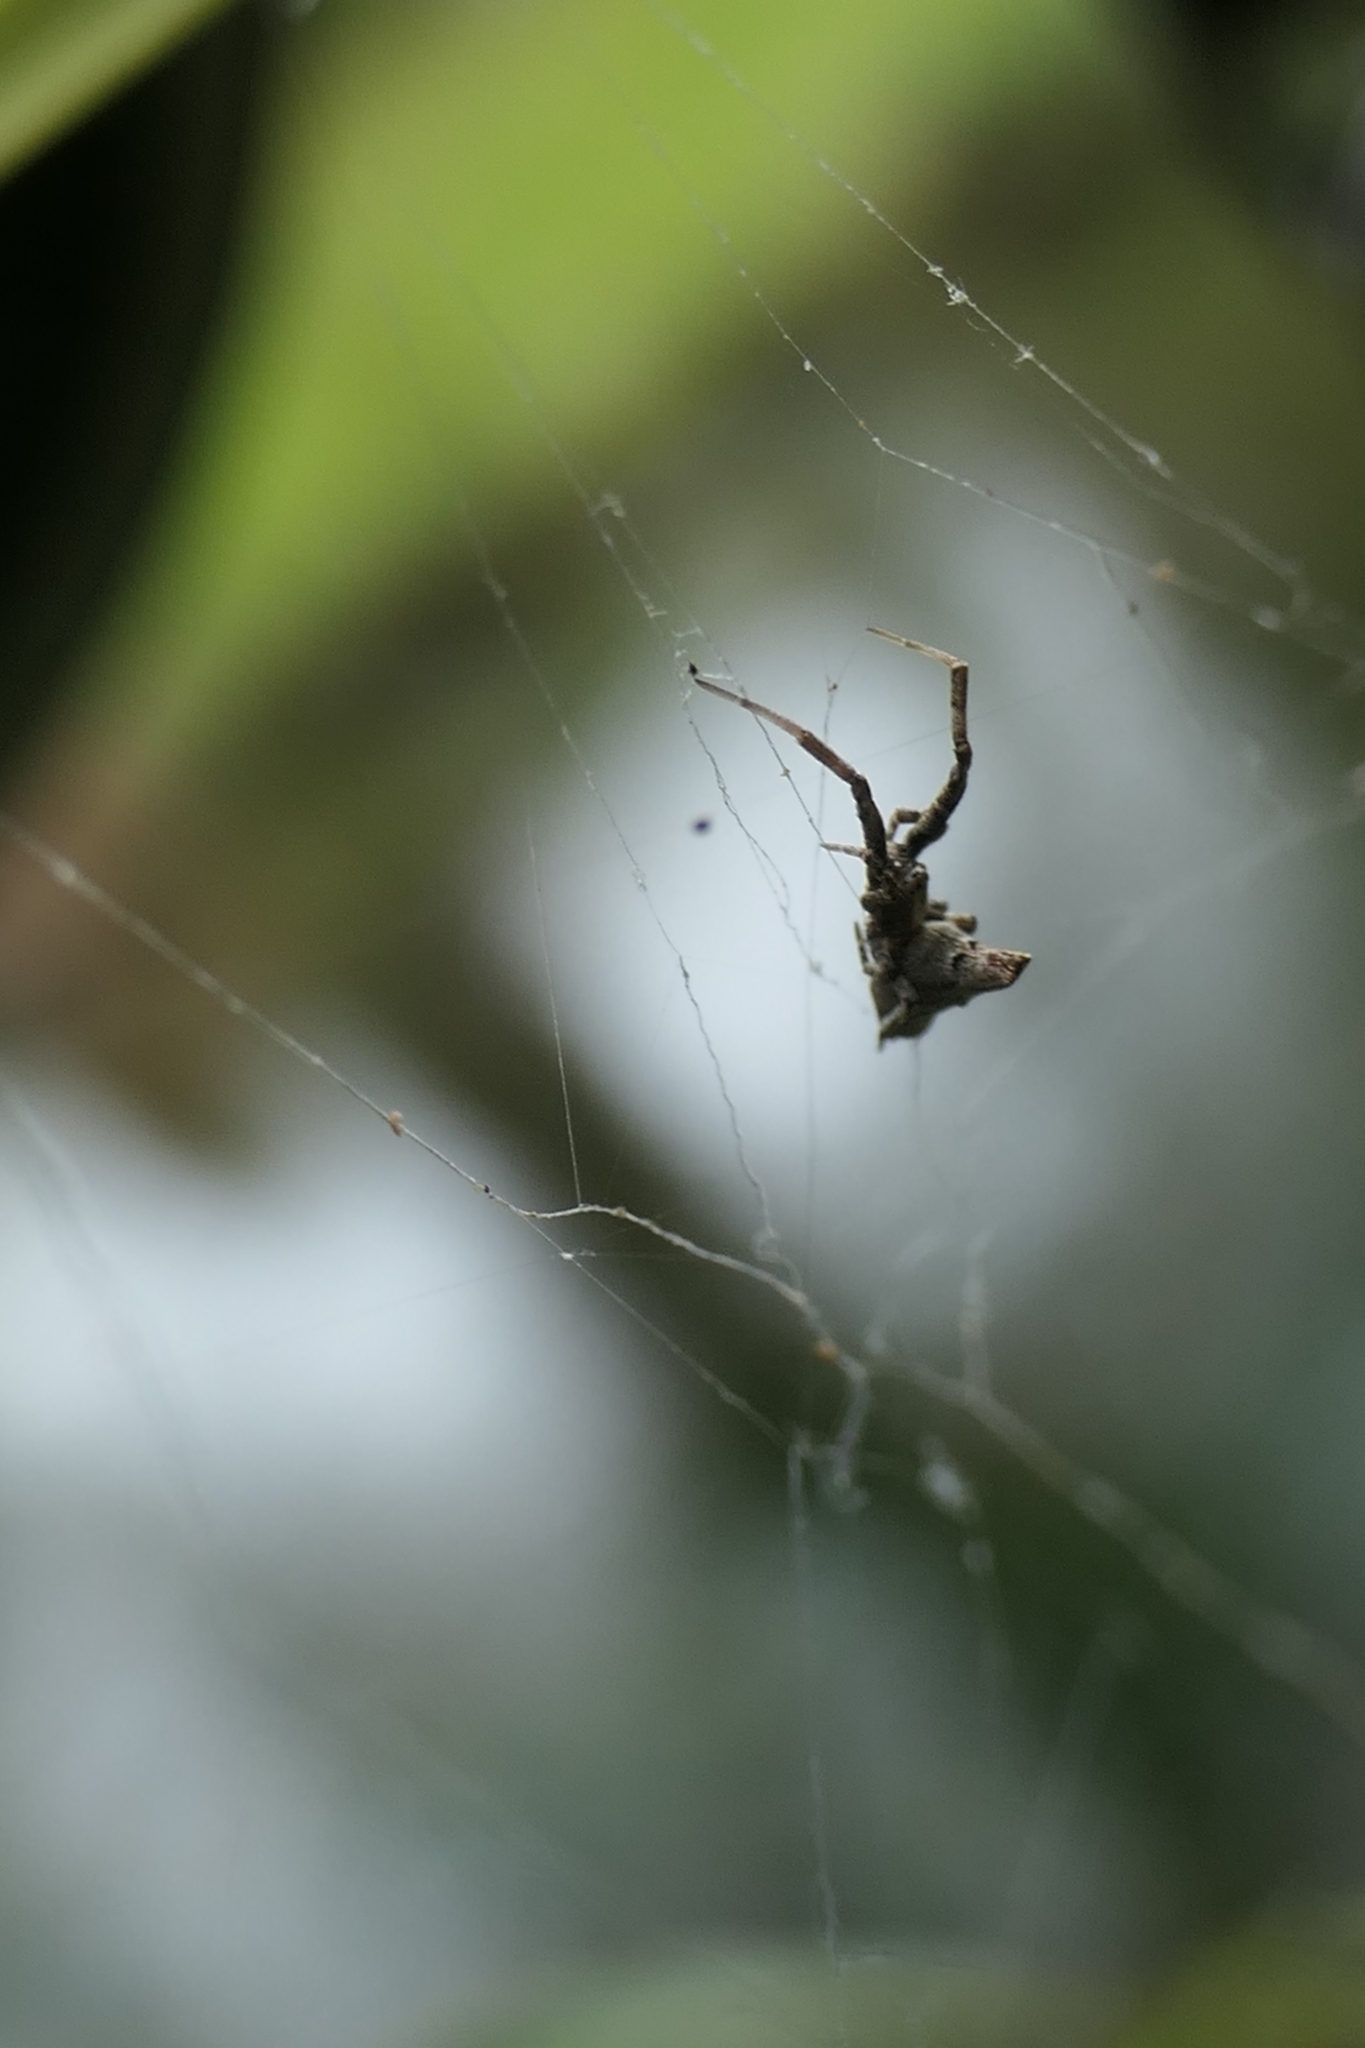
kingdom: Animalia
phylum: Arthropoda
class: Arachnida
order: Araneae
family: Uloboridae
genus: Philoponella
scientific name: Philoponella congregabilis
